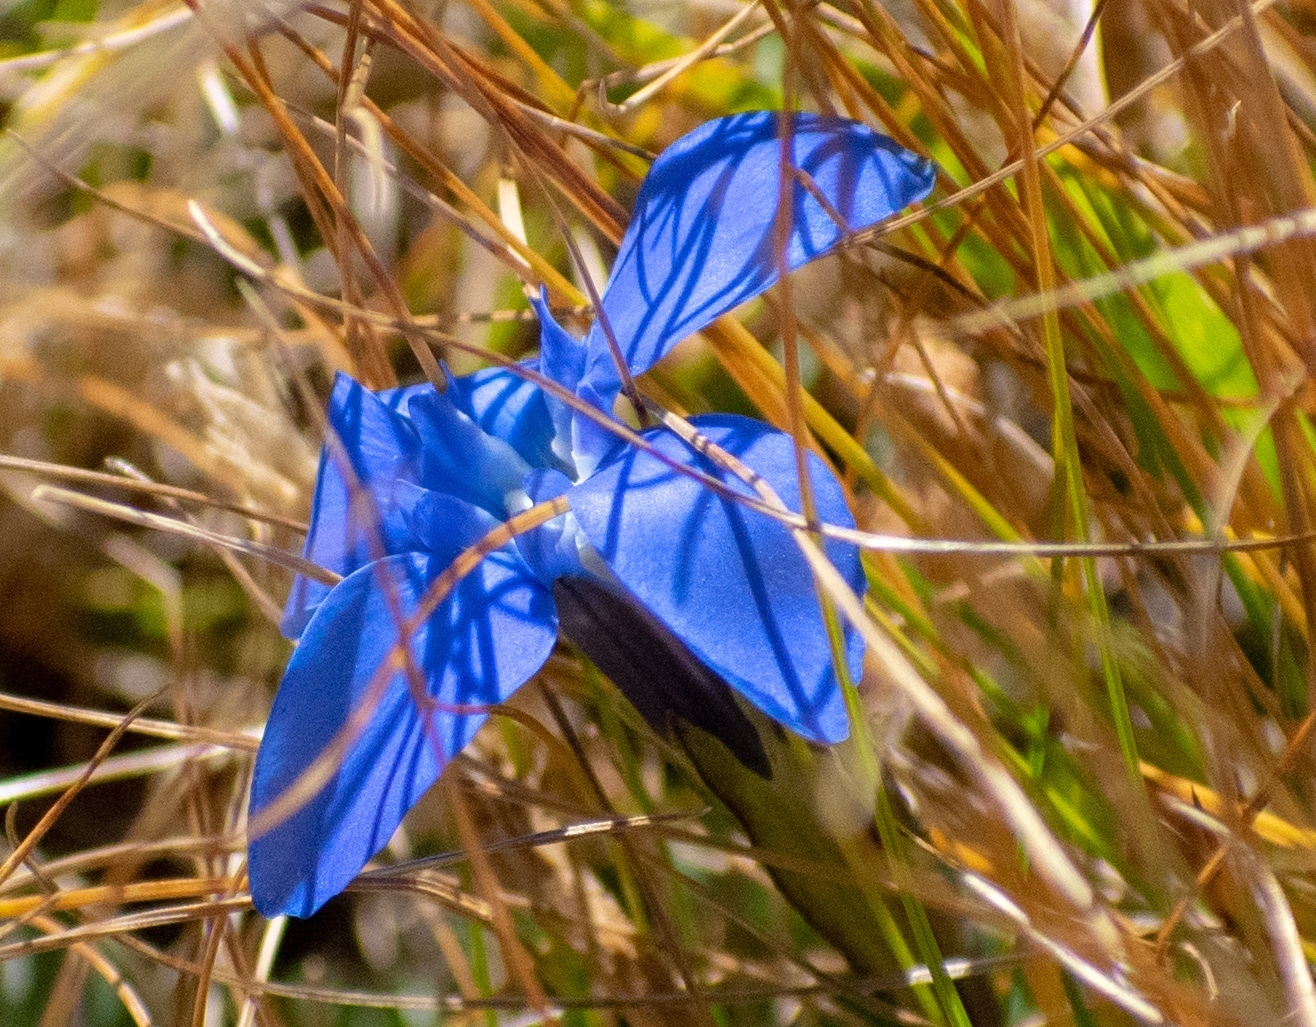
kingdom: Plantae
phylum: Tracheophyta
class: Magnoliopsida
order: Gentianales
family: Gentianaceae
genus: Gentiana
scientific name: Gentiana brachyphylla
